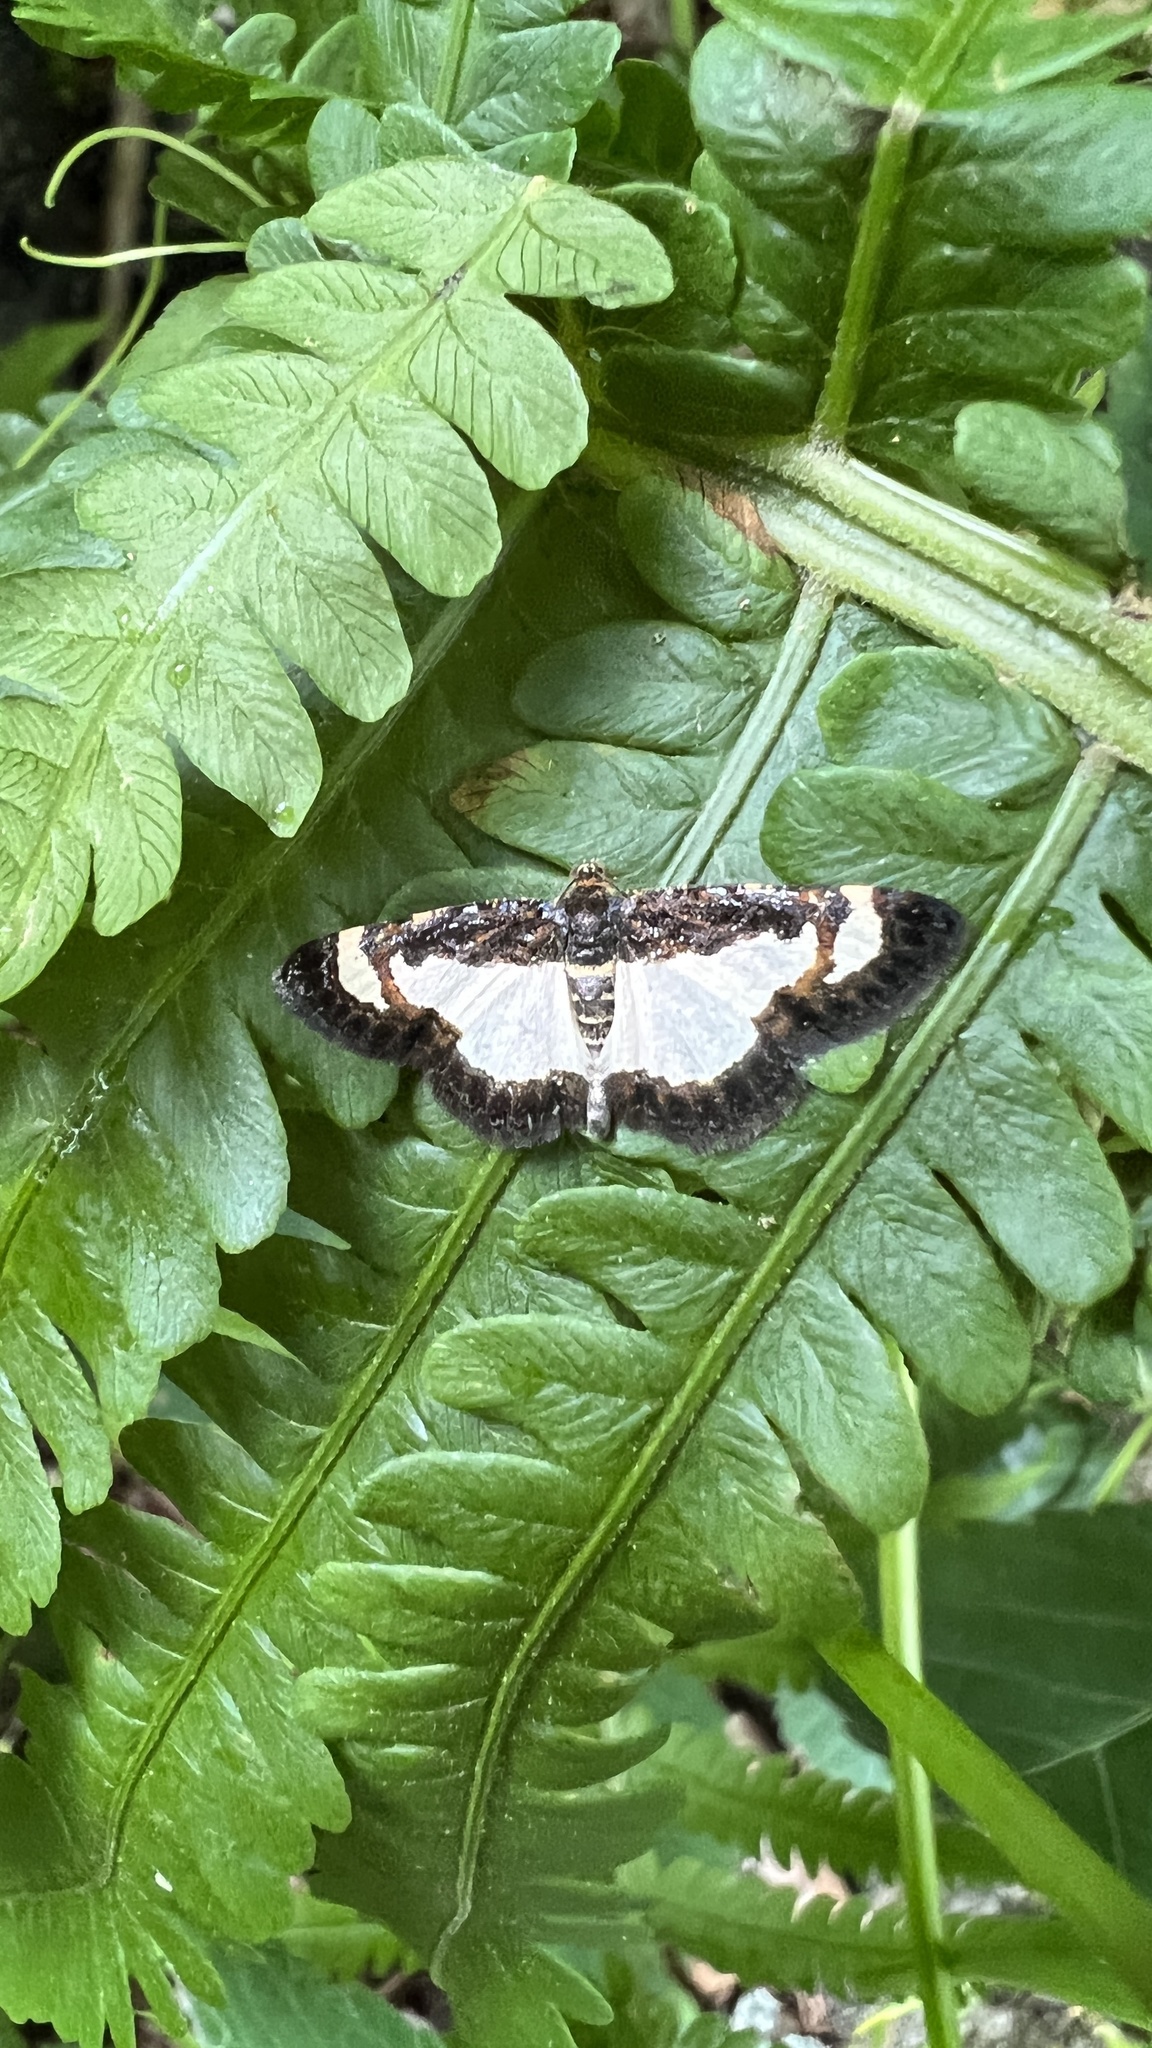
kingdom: Animalia
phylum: Arthropoda
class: Insecta
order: Lepidoptera
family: Geometridae
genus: Heliomata
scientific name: Heliomata cycladata
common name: Common spring moth
